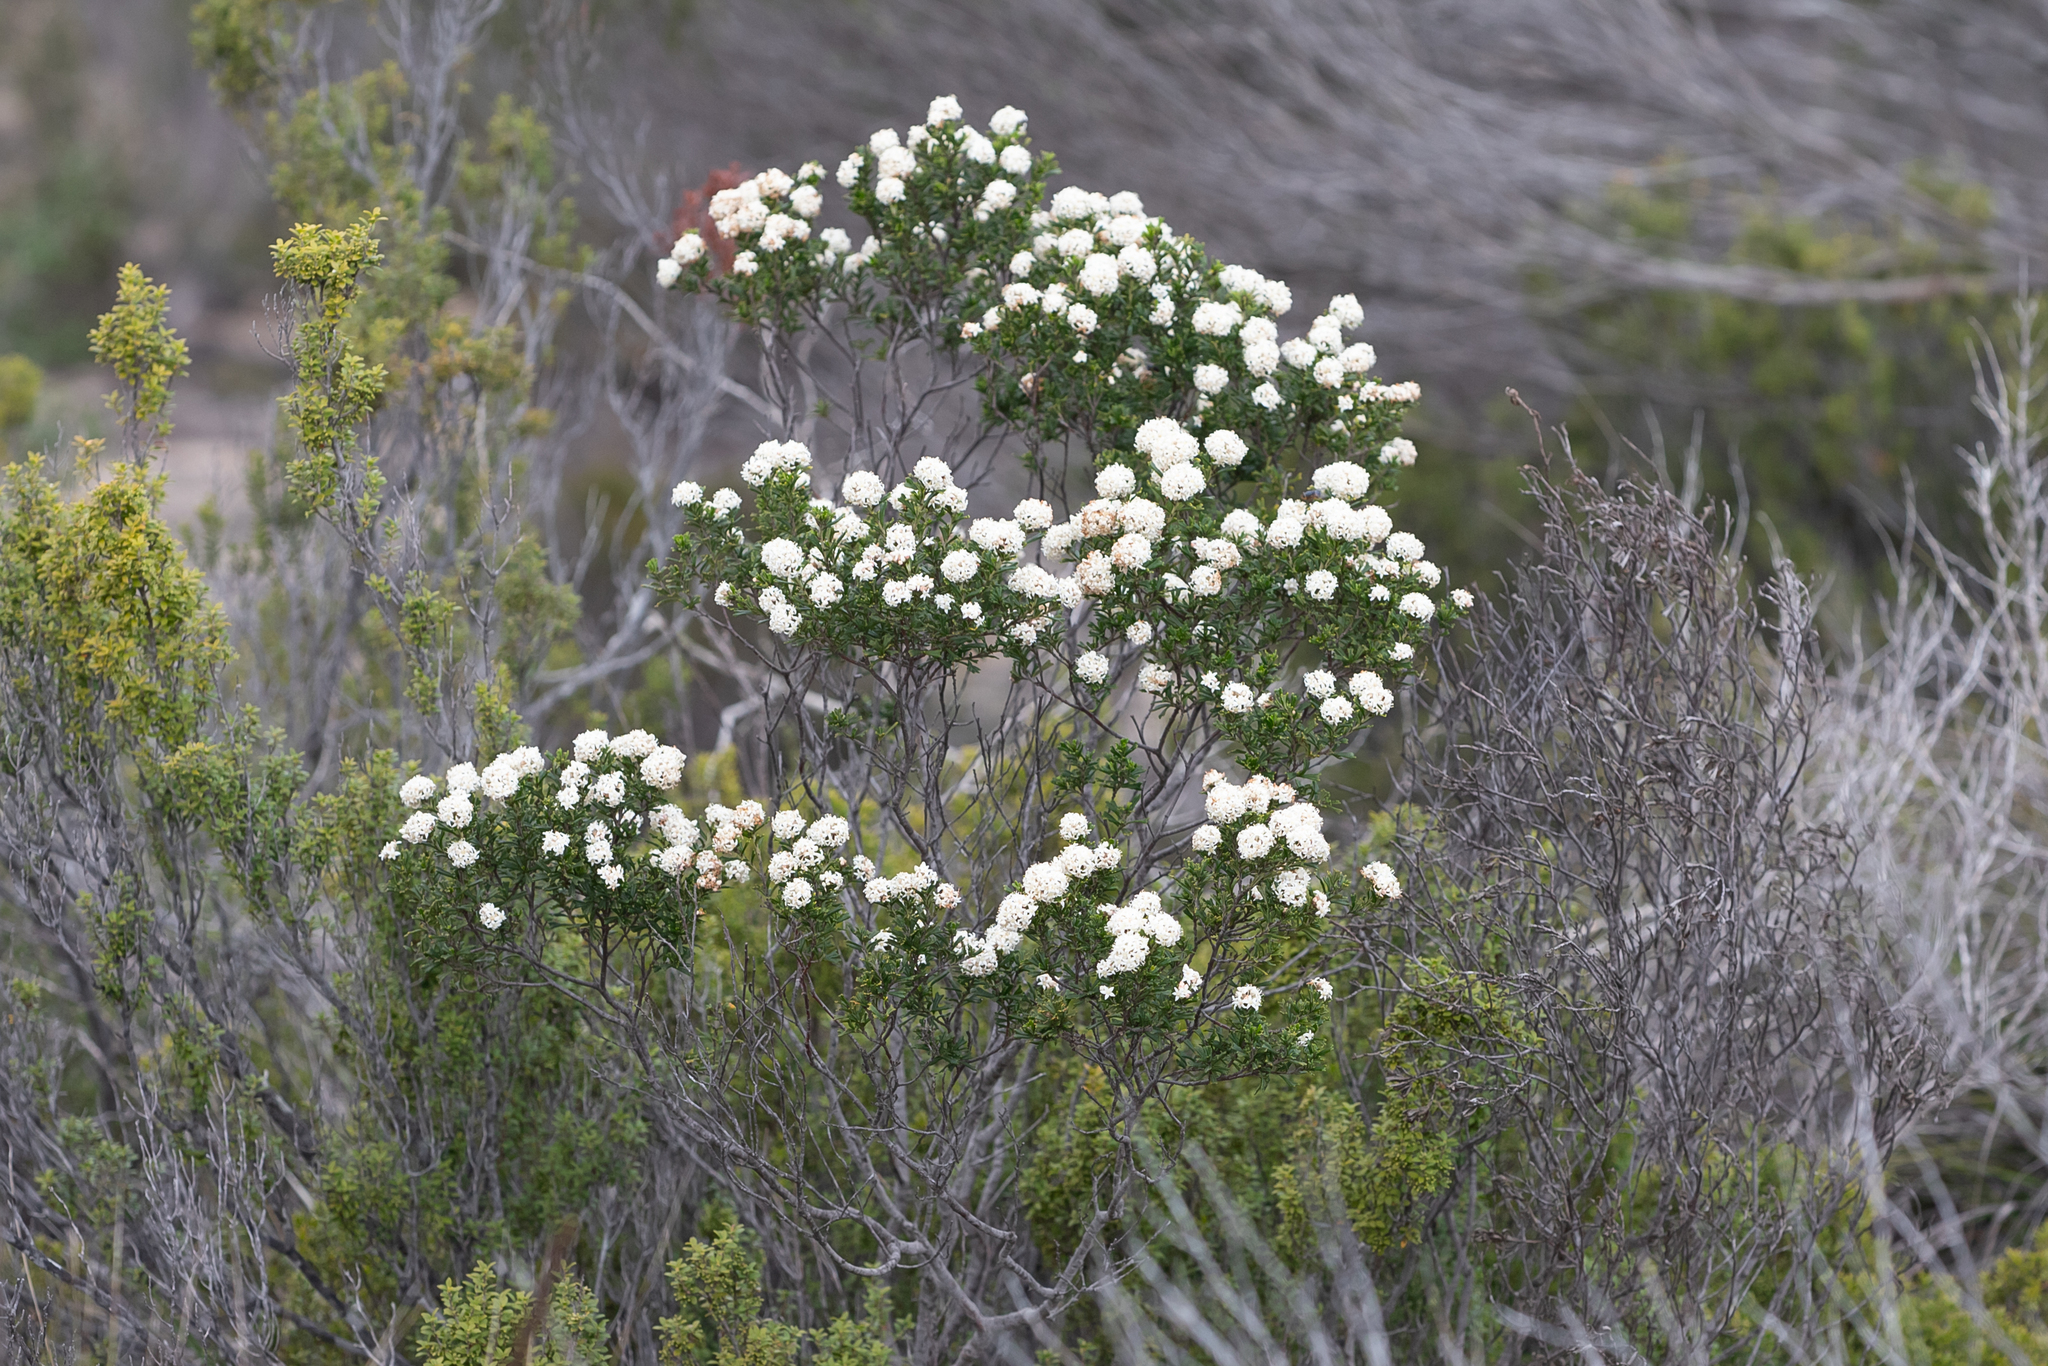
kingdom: Plantae
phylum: Tracheophyta
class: Magnoliopsida
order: Rosales
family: Rhamnaceae
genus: Pomaderris
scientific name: Pomaderris obcordata
